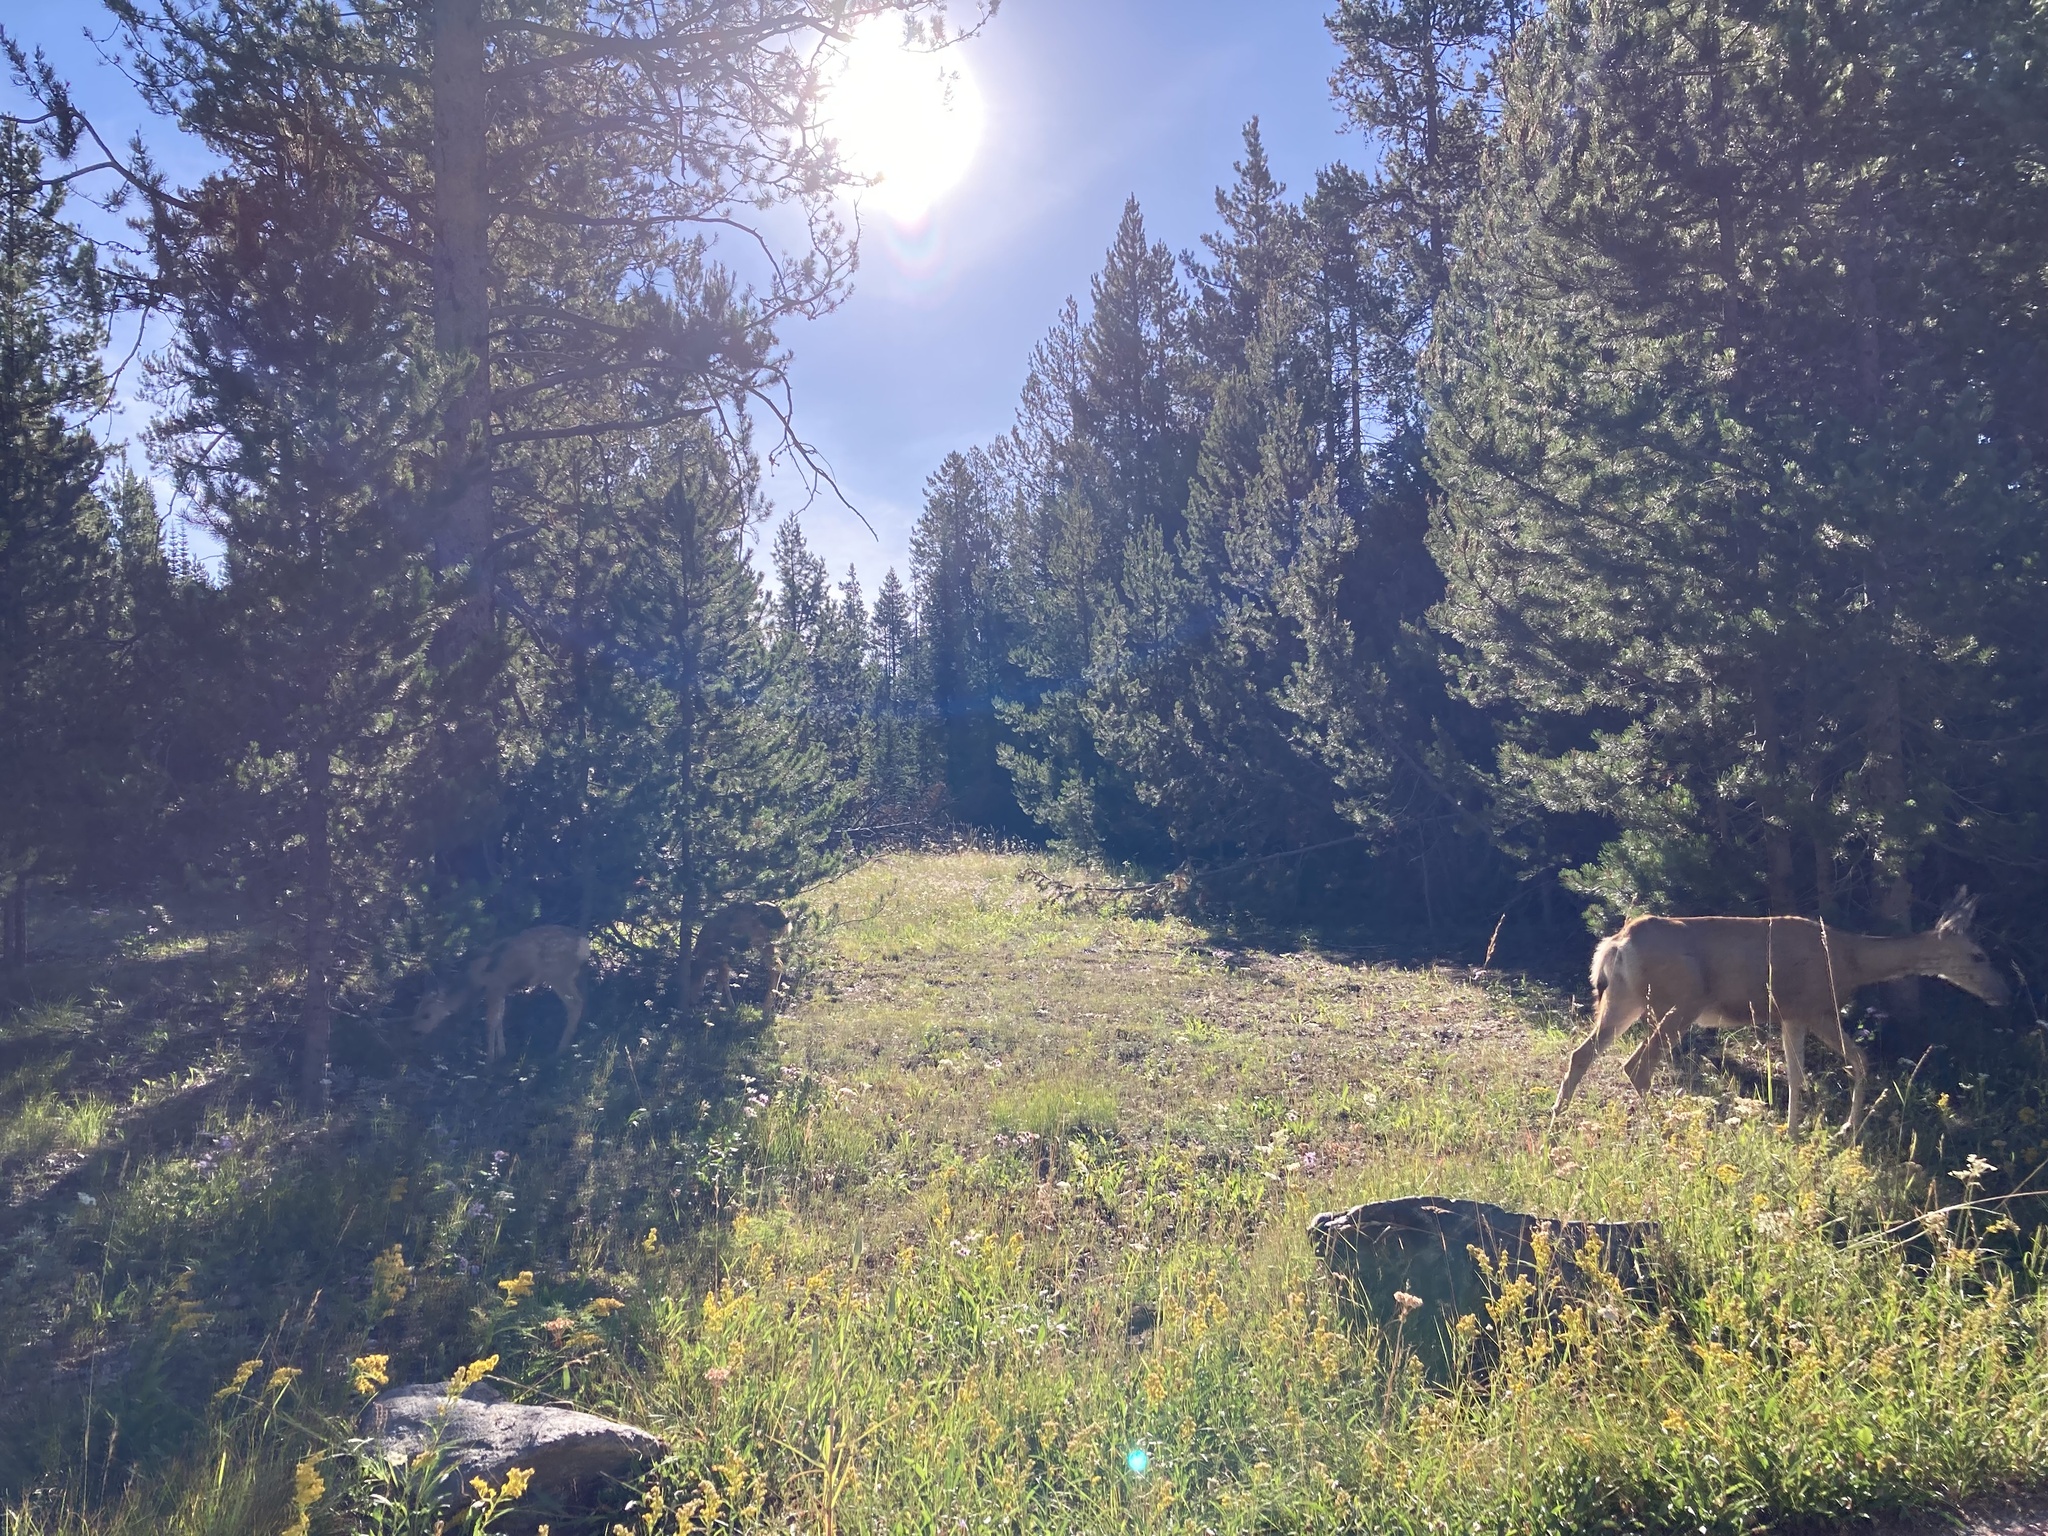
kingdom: Animalia
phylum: Chordata
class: Mammalia
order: Artiodactyla
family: Cervidae
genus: Odocoileus
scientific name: Odocoileus hemionus
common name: Mule deer
